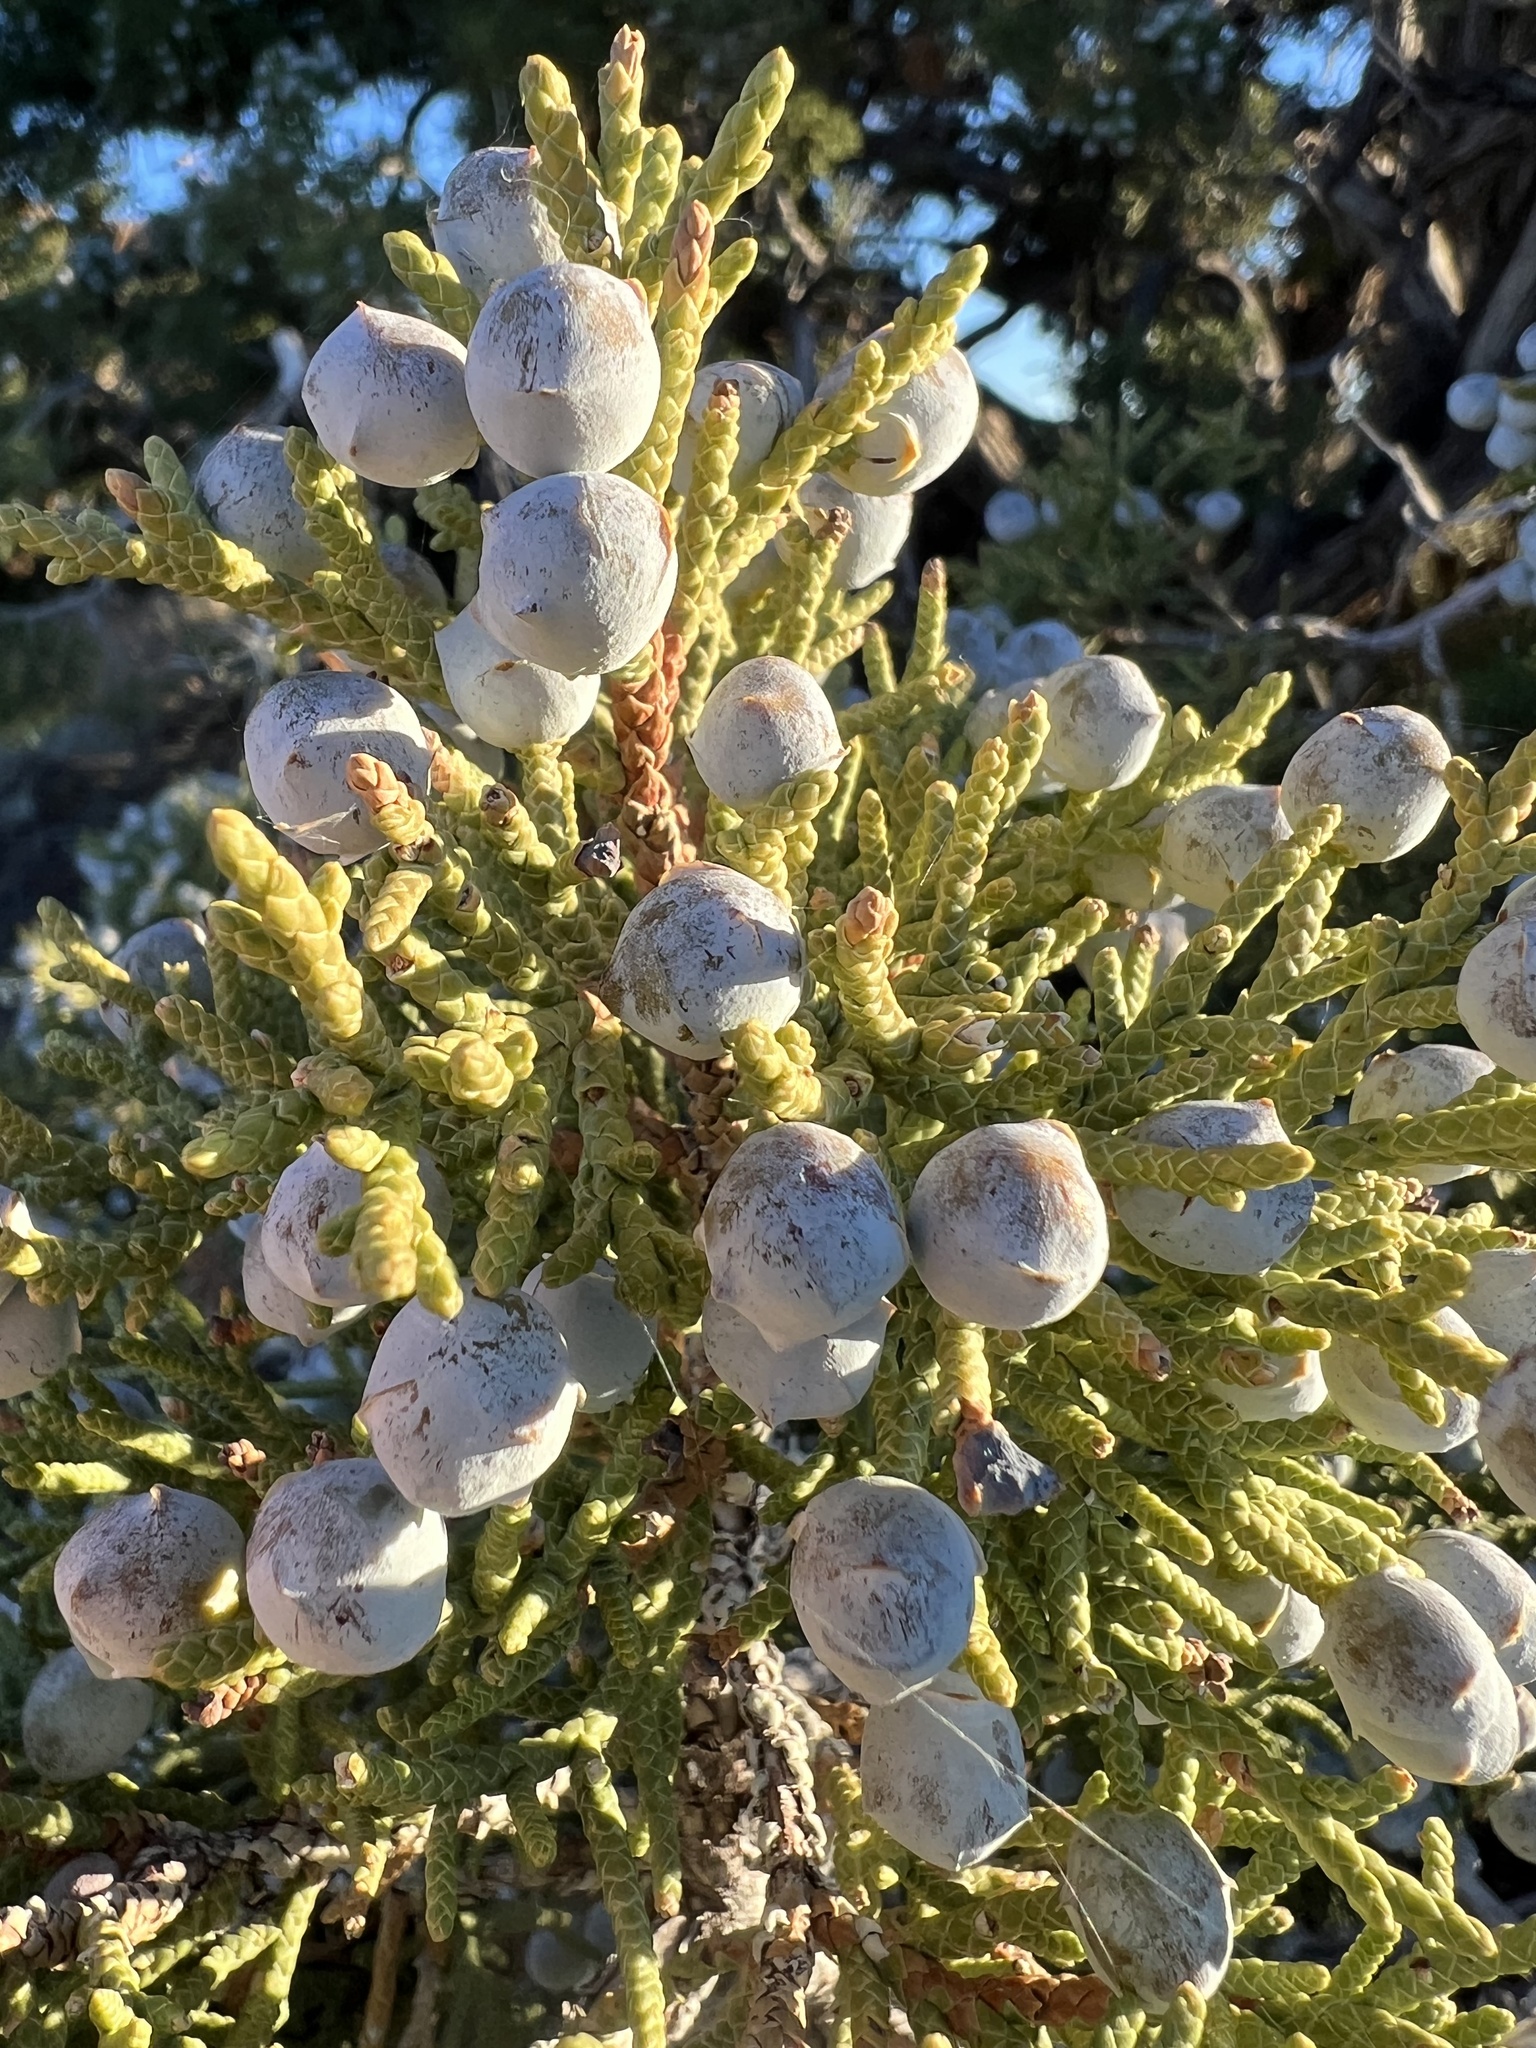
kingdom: Plantae
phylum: Tracheophyta
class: Pinopsida
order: Pinales
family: Cupressaceae
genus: Juniperus
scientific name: Juniperus osteosperma
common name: Utah juniper
